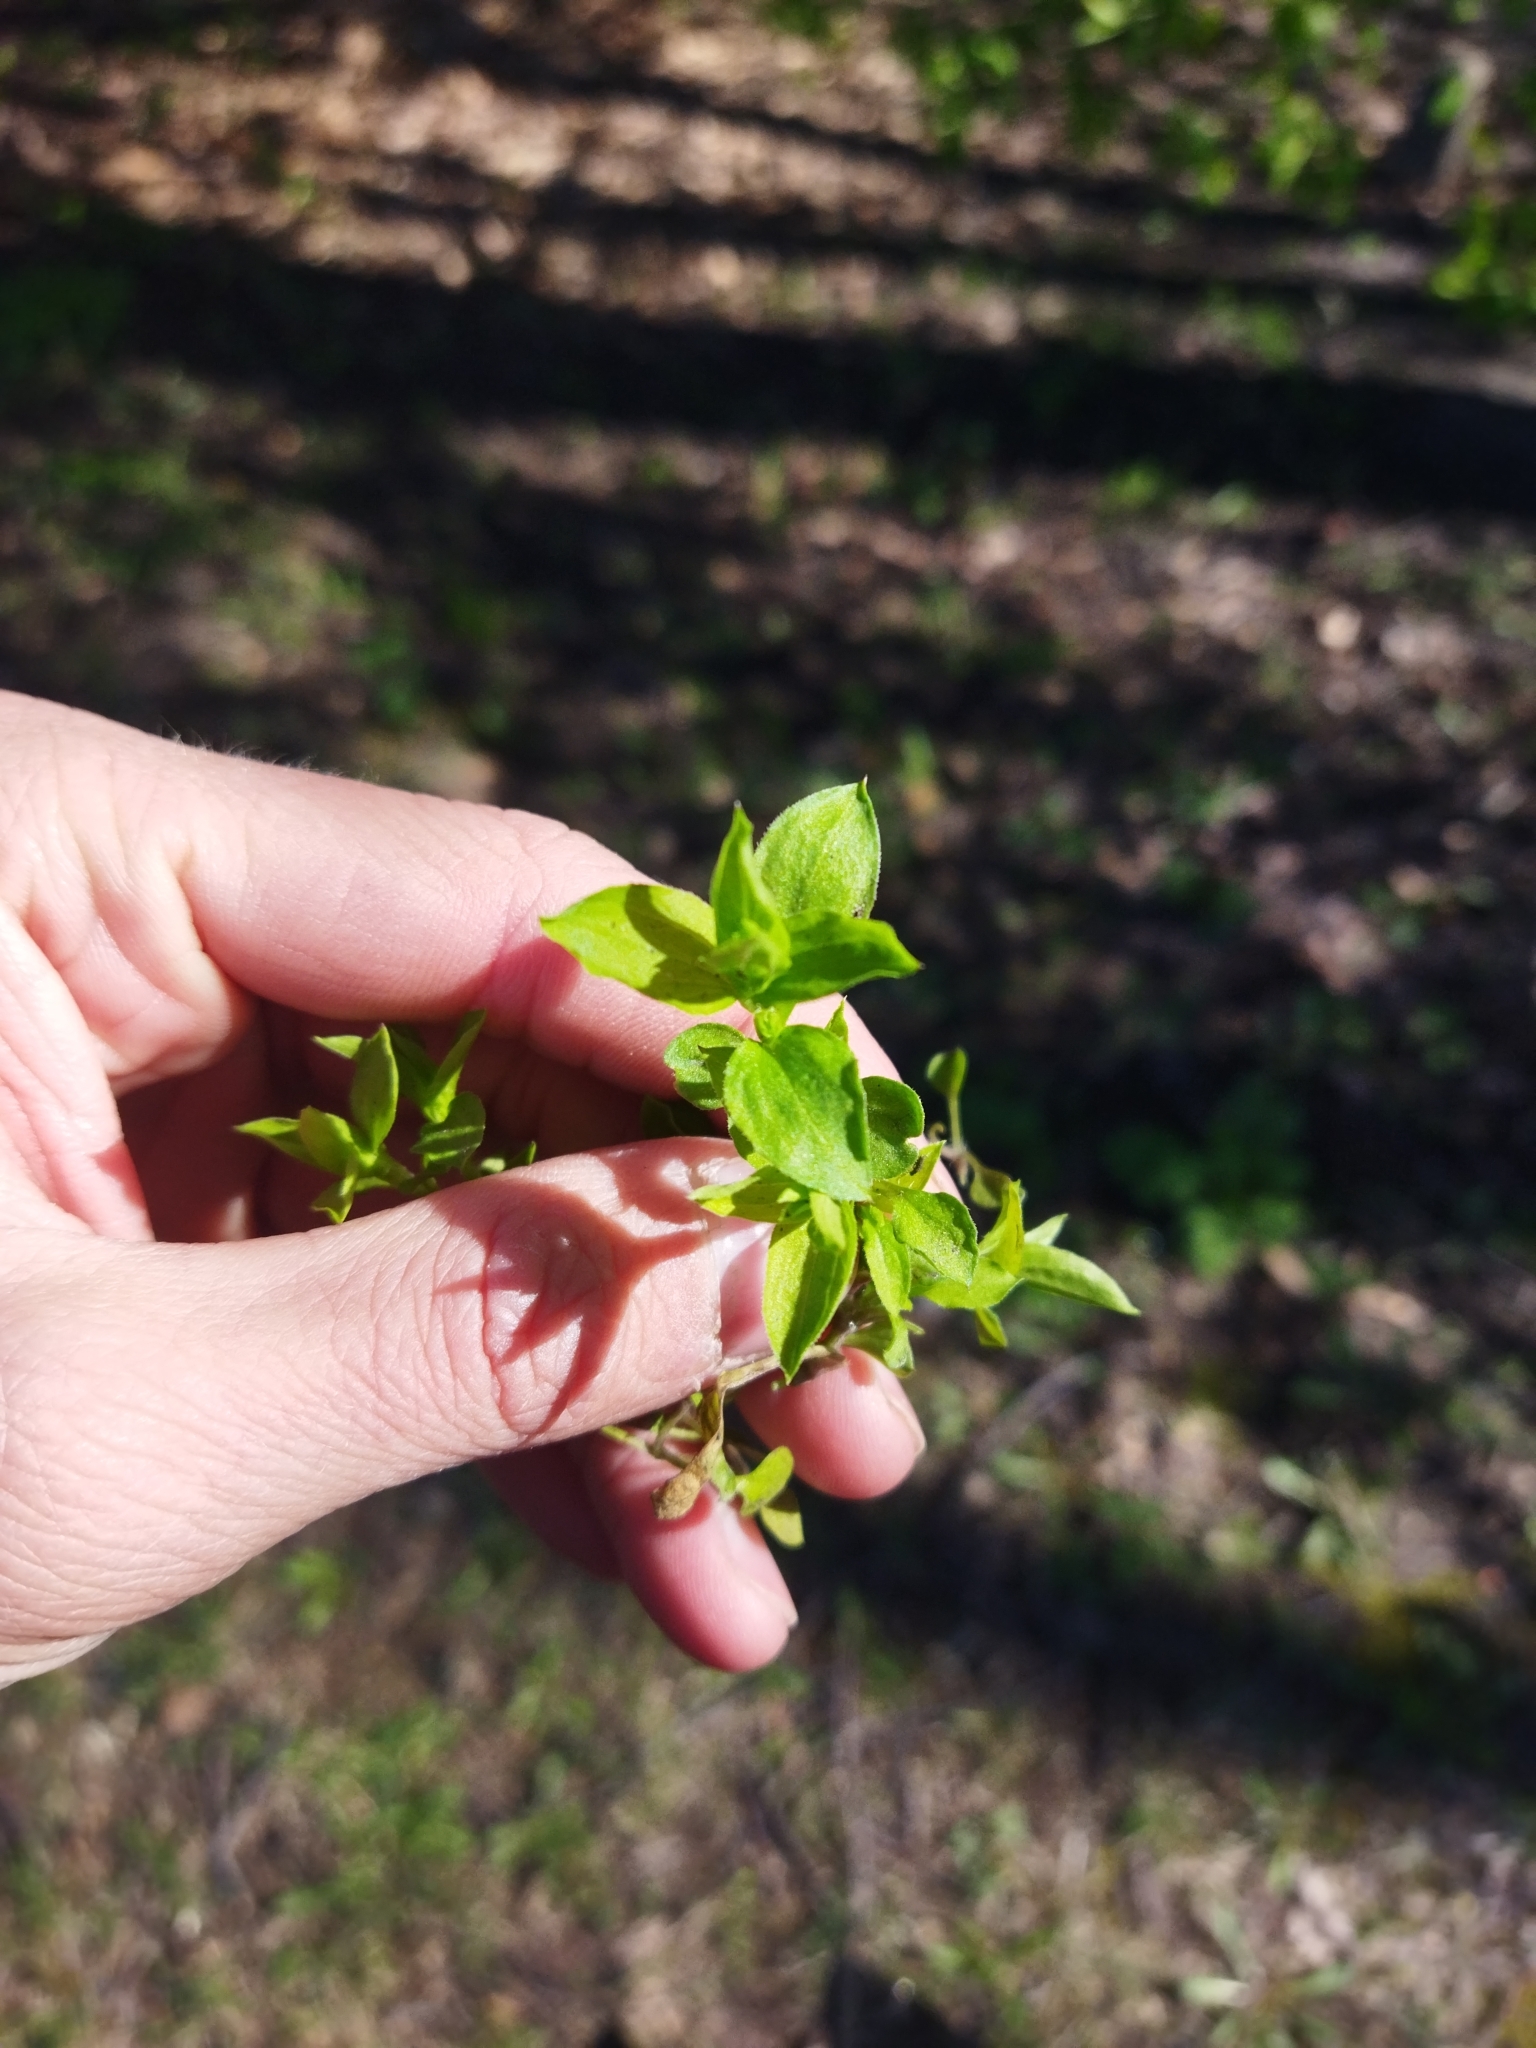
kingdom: Plantae
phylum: Tracheophyta
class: Magnoliopsida
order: Caryophyllales
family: Caryophyllaceae
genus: Moehringia
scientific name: Moehringia trinervia
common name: Three-nerved sandwort
